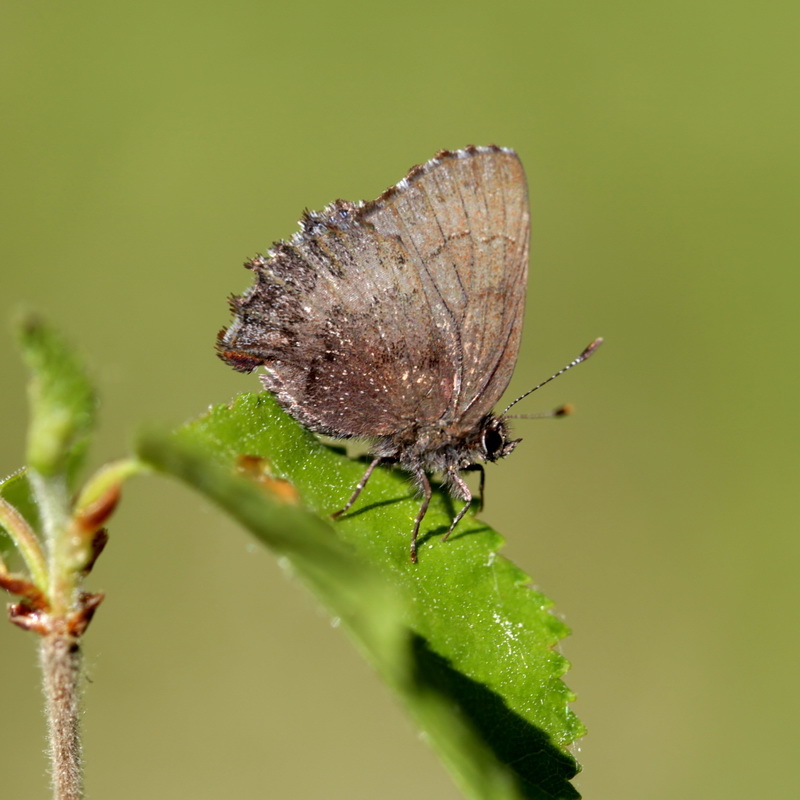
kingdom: Animalia
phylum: Arthropoda
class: Insecta
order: Lepidoptera
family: Lycaenidae
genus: Ginzia
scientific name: Ginzia Ahlbergia frivaldszkyi
